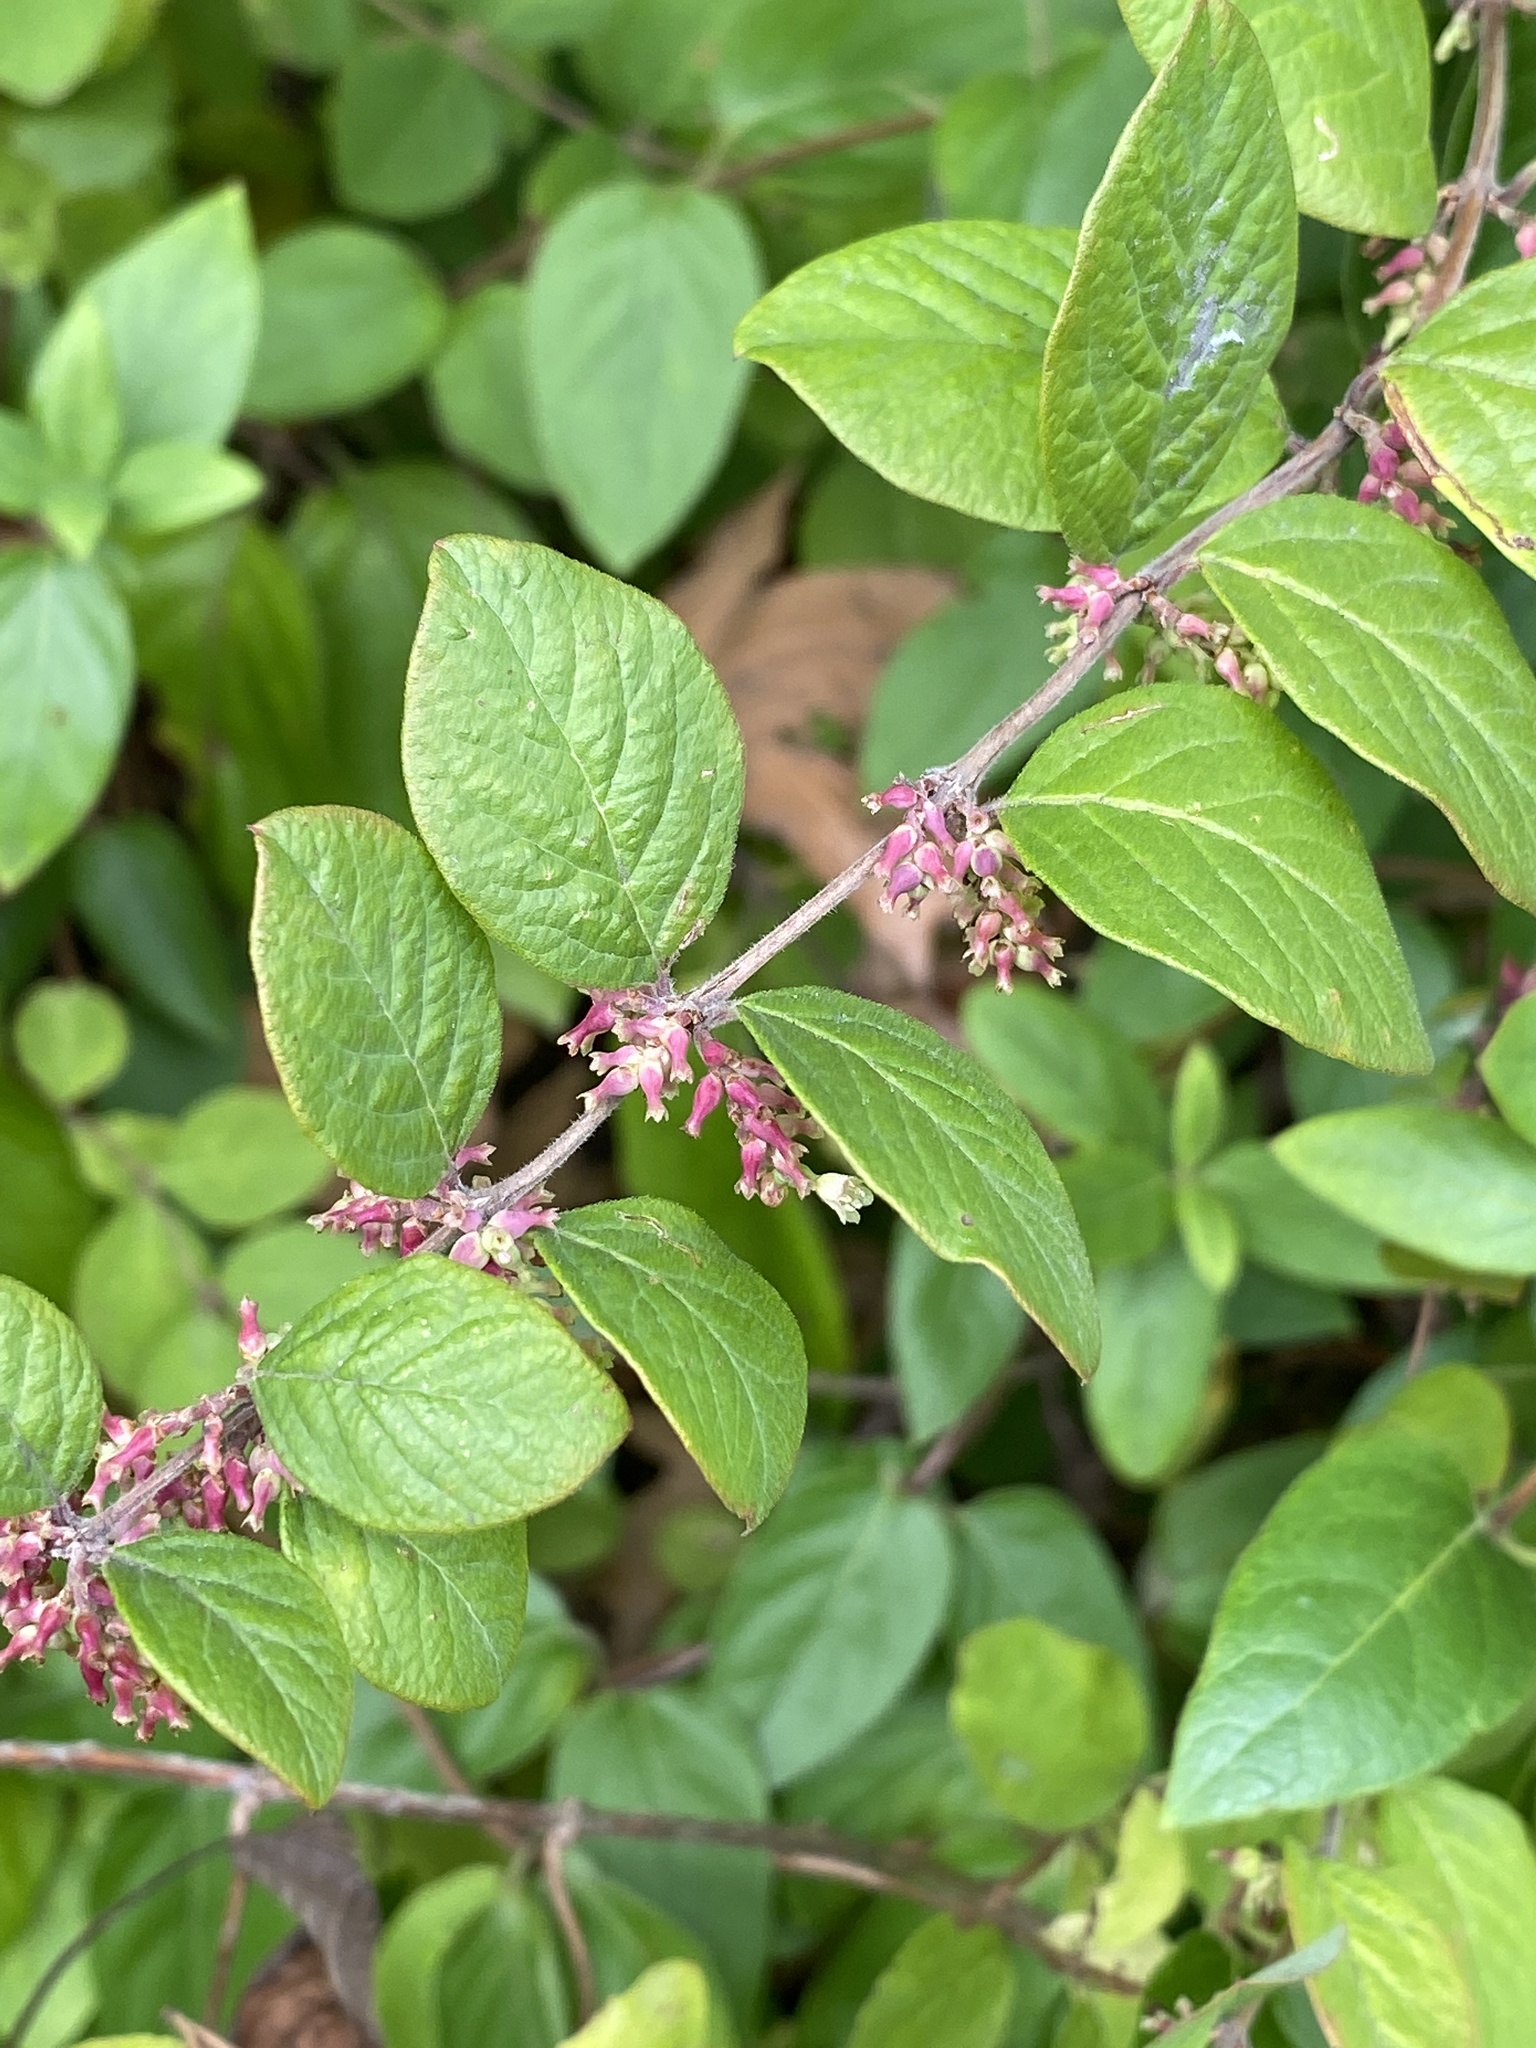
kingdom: Plantae
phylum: Tracheophyta
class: Magnoliopsida
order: Dipsacales
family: Caprifoliaceae
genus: Symphoricarpos
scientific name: Symphoricarpos orbiculatus
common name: Coralberry
